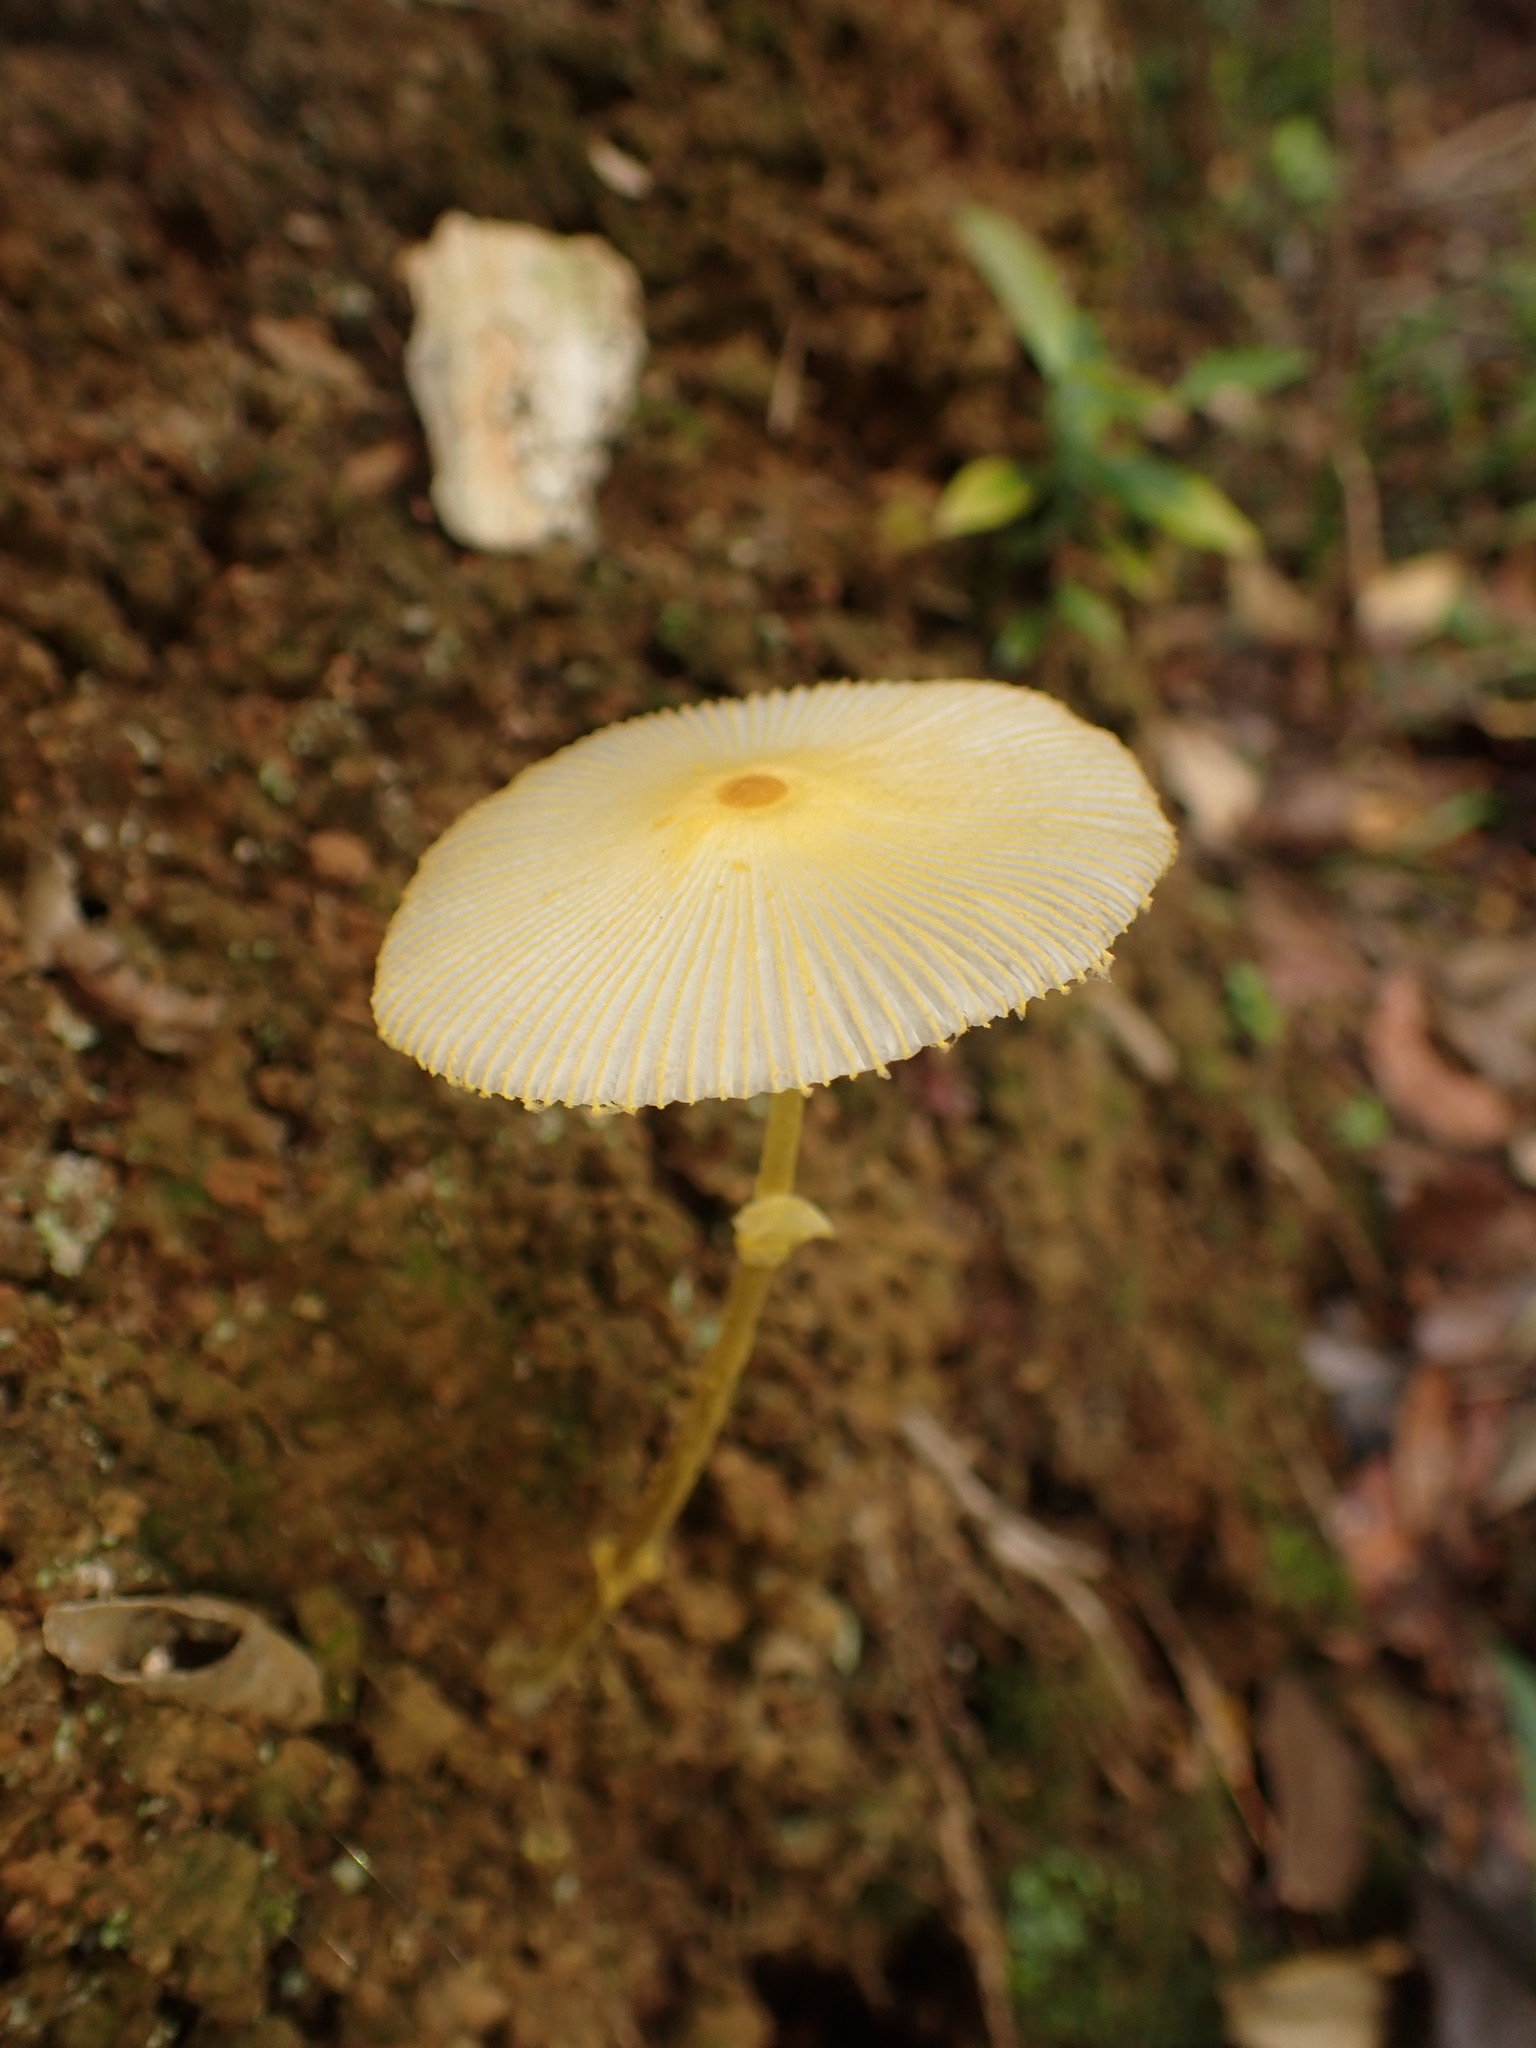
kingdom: Fungi
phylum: Basidiomycota
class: Agaricomycetes
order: Agaricales
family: Agaricaceae
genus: Leucocoprinus
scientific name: Leucocoprinus fragilissimus
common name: Fragile dapperling
